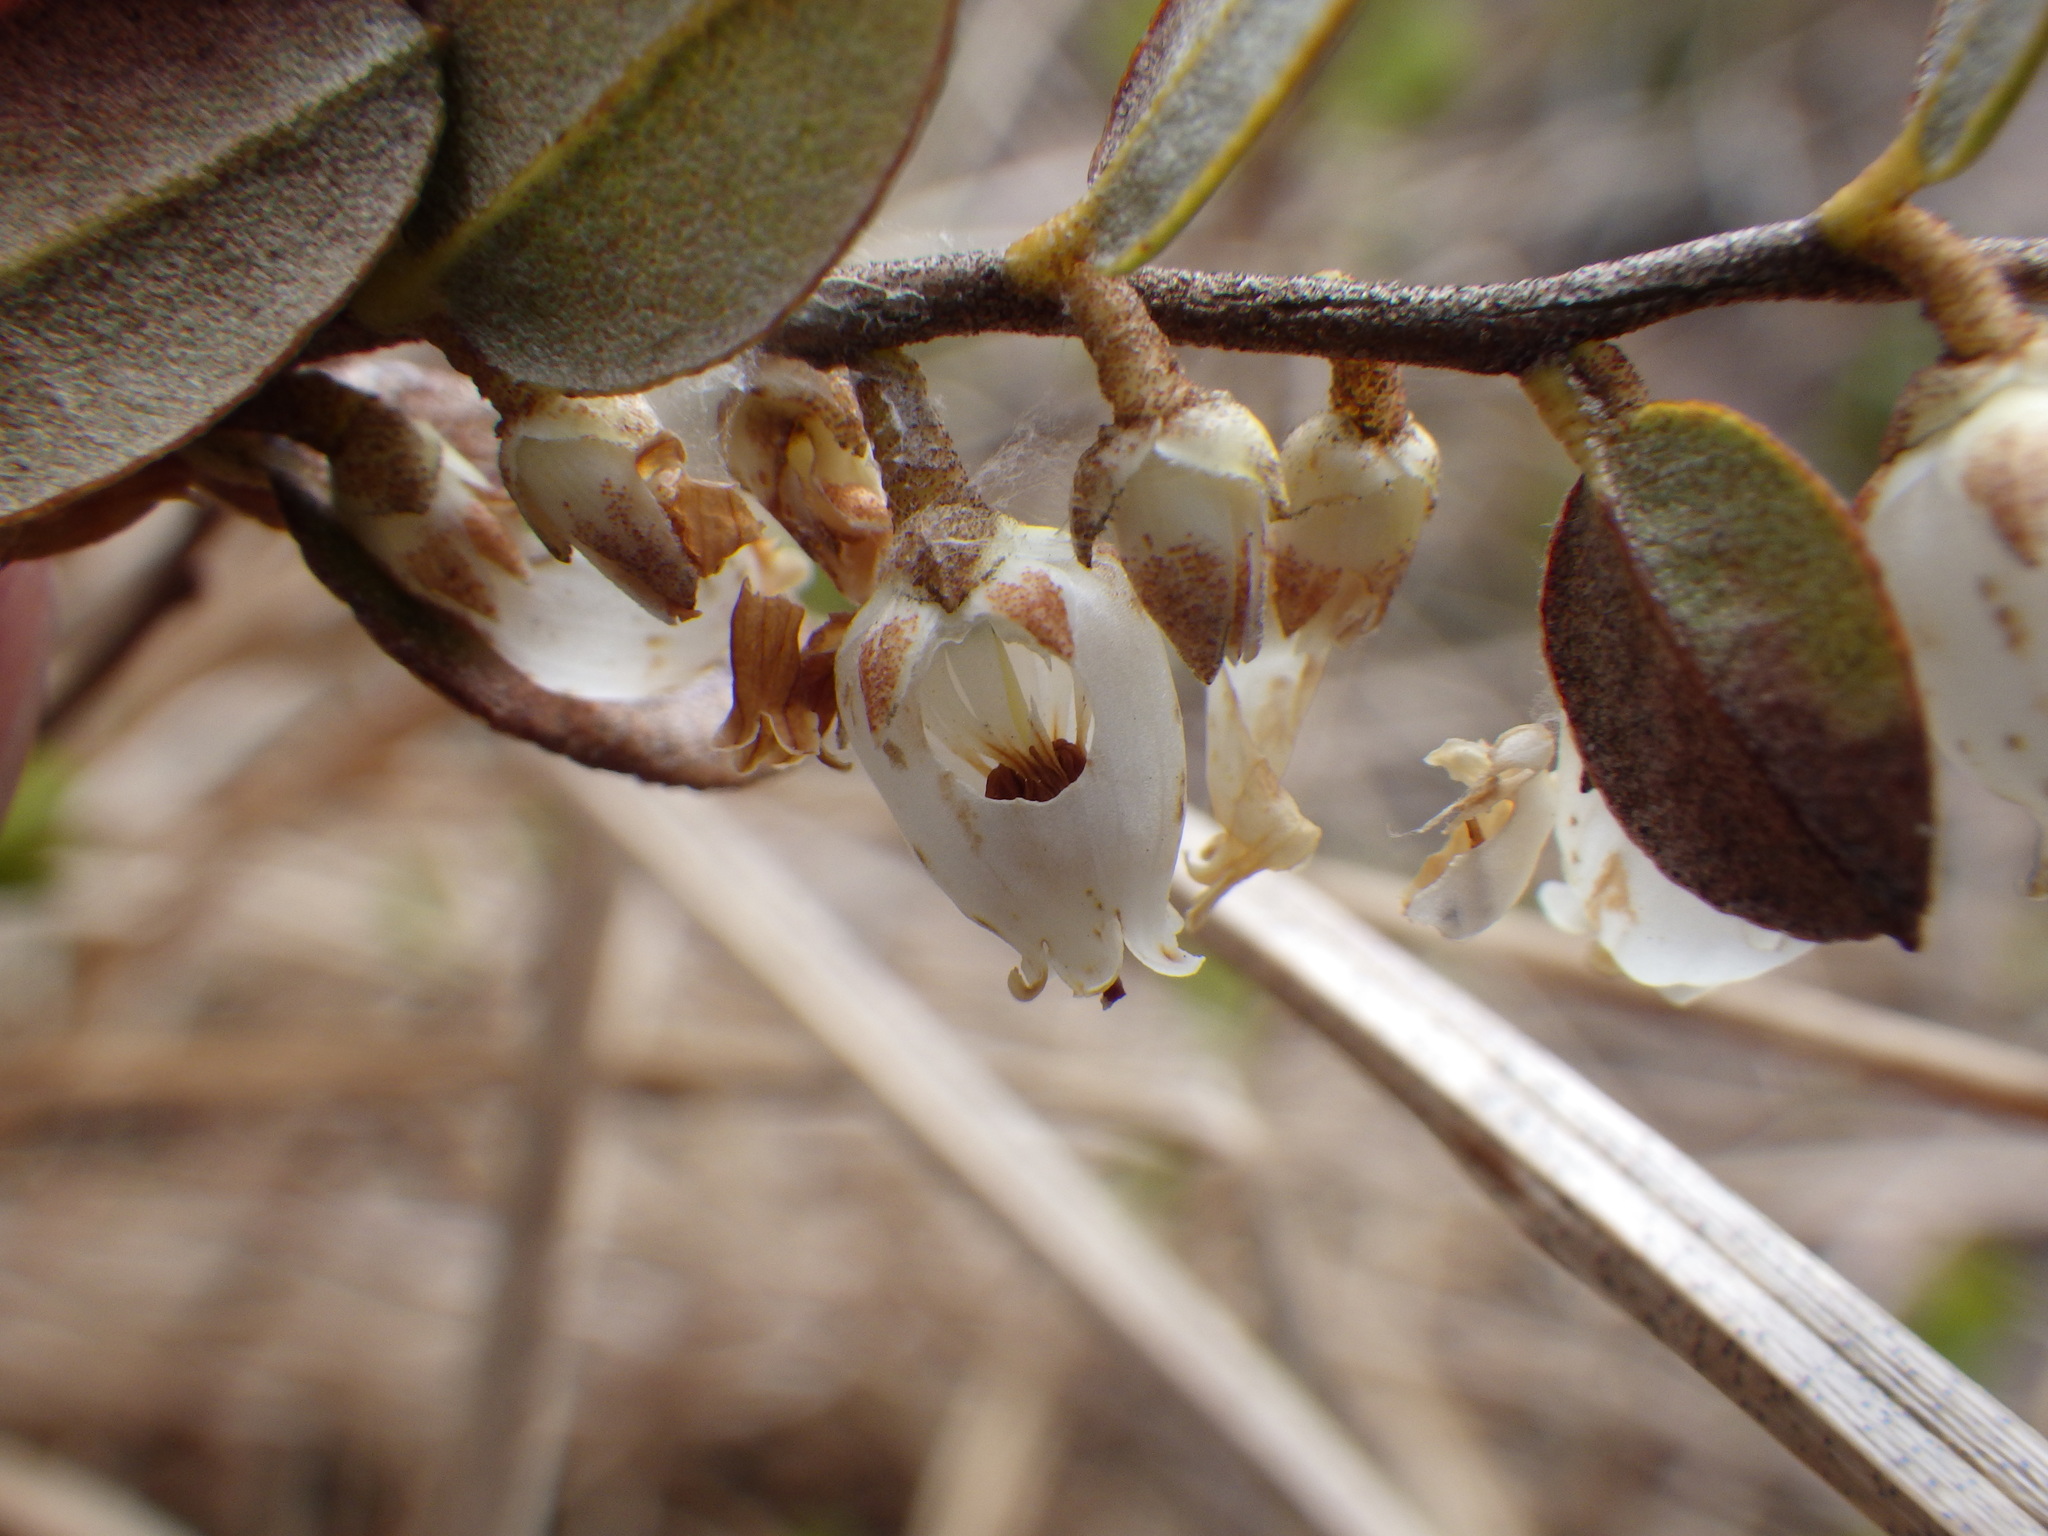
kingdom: Plantae
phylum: Tracheophyta
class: Magnoliopsida
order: Ericales
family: Ericaceae
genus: Chamaedaphne
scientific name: Chamaedaphne calyculata
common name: Leatherleaf
